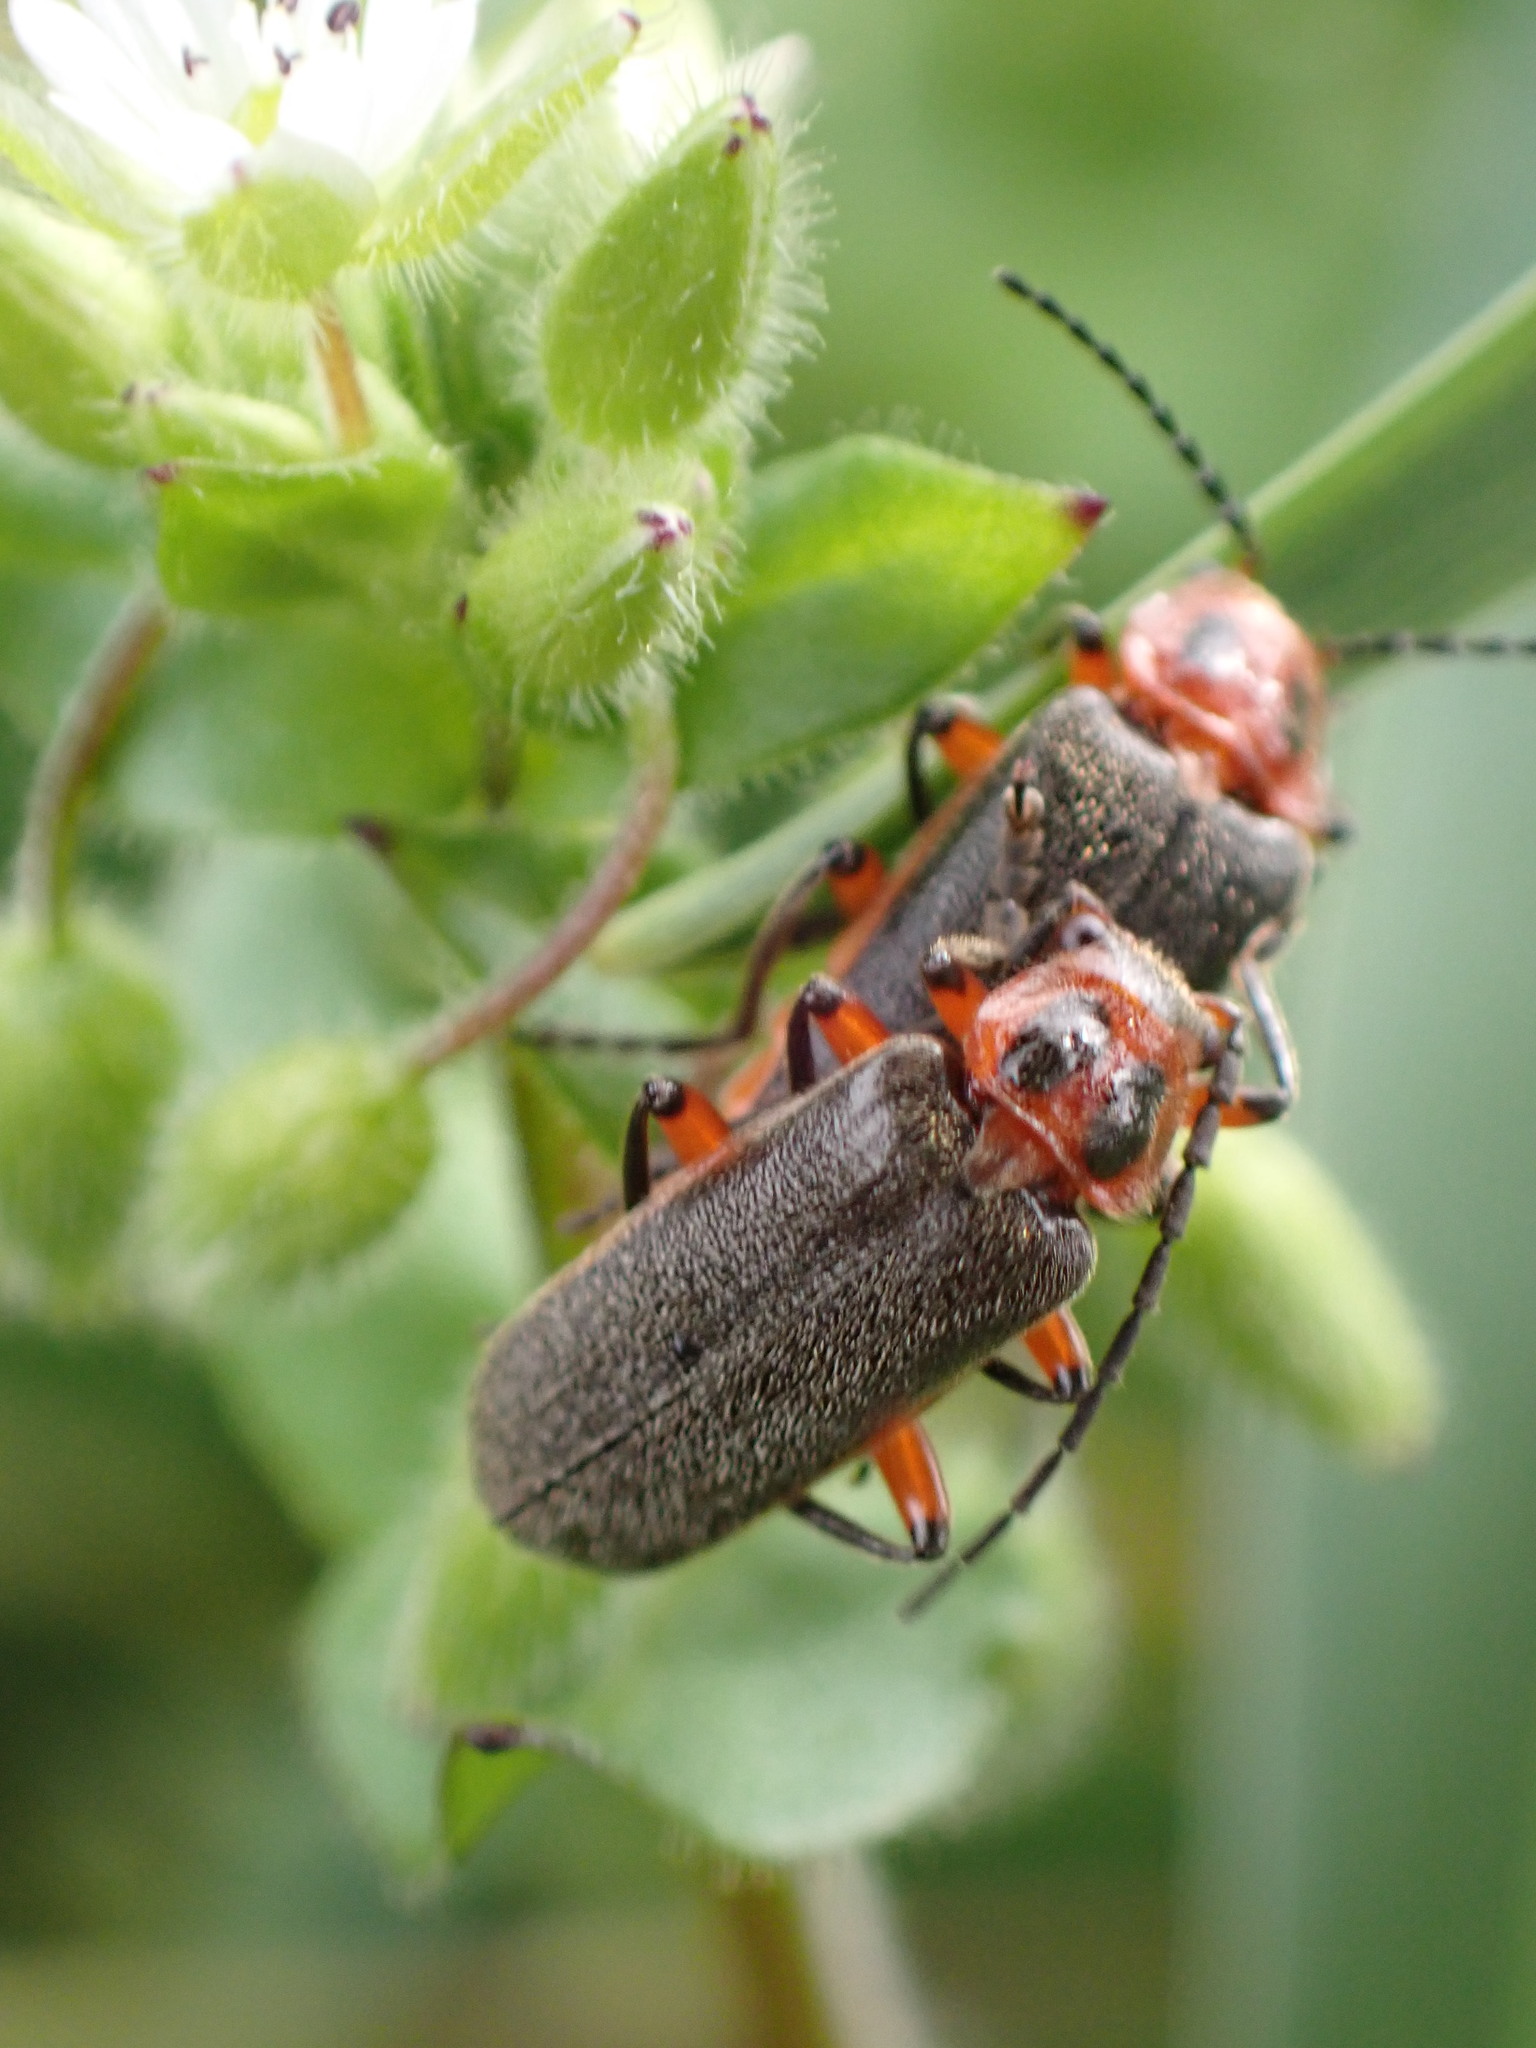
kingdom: Animalia
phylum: Arthropoda
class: Insecta
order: Coleoptera
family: Cantharidae
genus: Atalantycha
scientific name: Atalantycha bilineata
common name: Two-lined leatherwing
